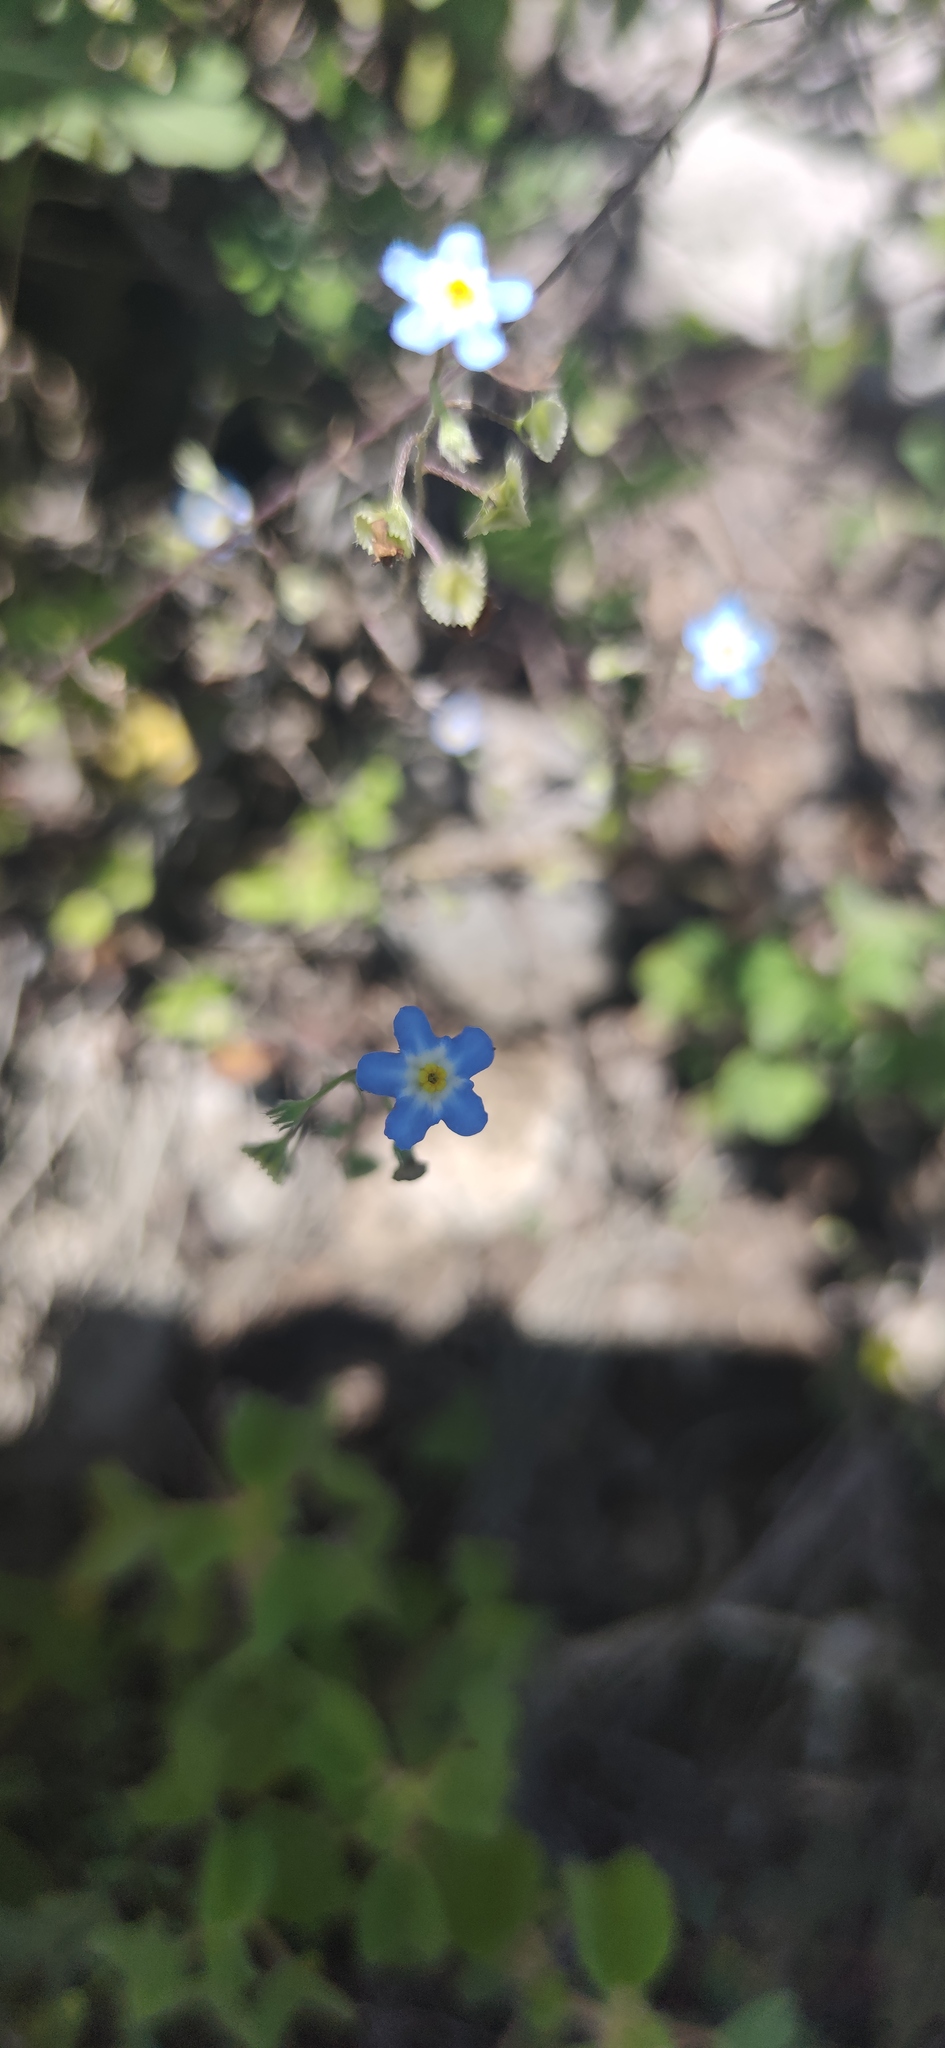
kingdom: Plantae
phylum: Tracheophyta
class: Magnoliopsida
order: Boraginales
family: Boraginaceae
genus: Mimophytum
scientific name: Mimophytum alienum
